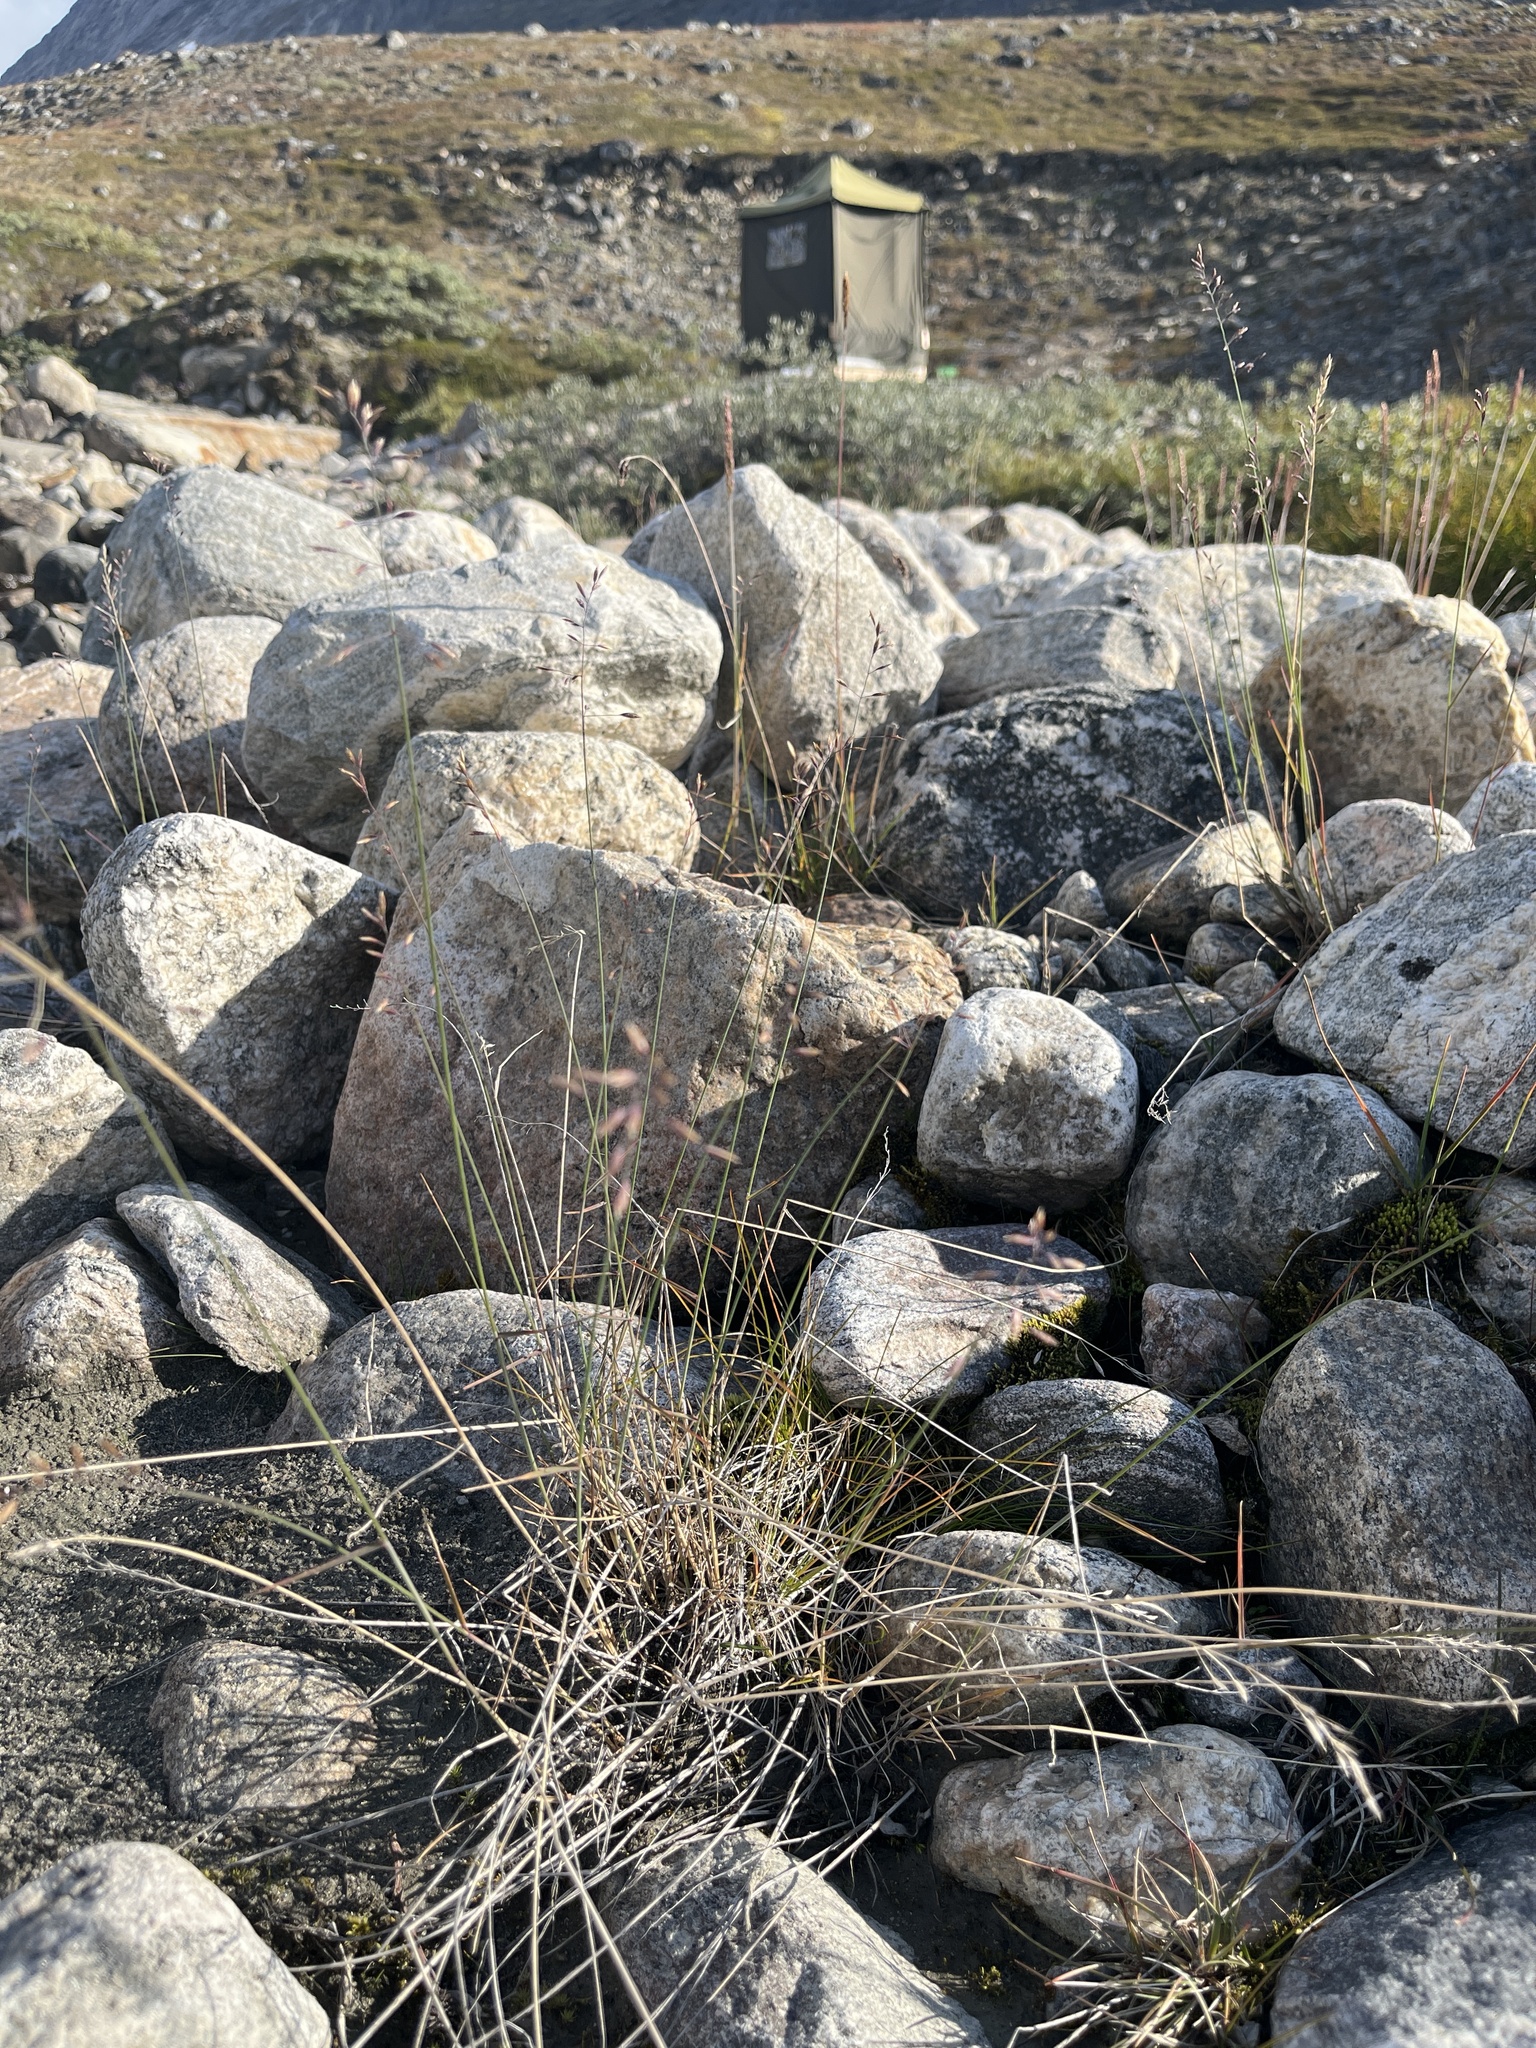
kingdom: Plantae
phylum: Tracheophyta
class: Liliopsida
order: Poales
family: Poaceae
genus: Poa
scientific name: Poa glauca
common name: Glaucous bluegrass
